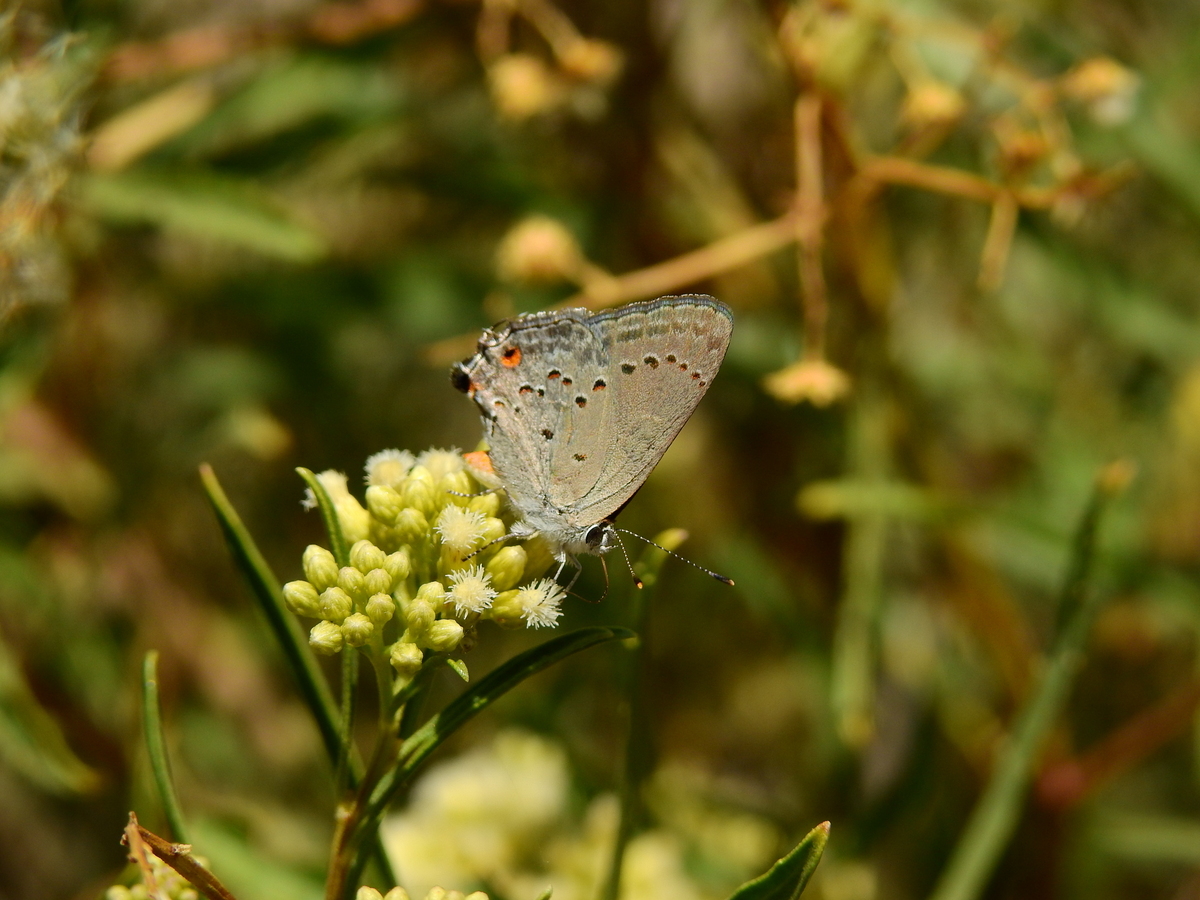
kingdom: Animalia
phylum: Arthropoda
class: Insecta
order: Lepidoptera
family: Lycaenidae
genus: Strymon
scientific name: Strymon eurytulus
